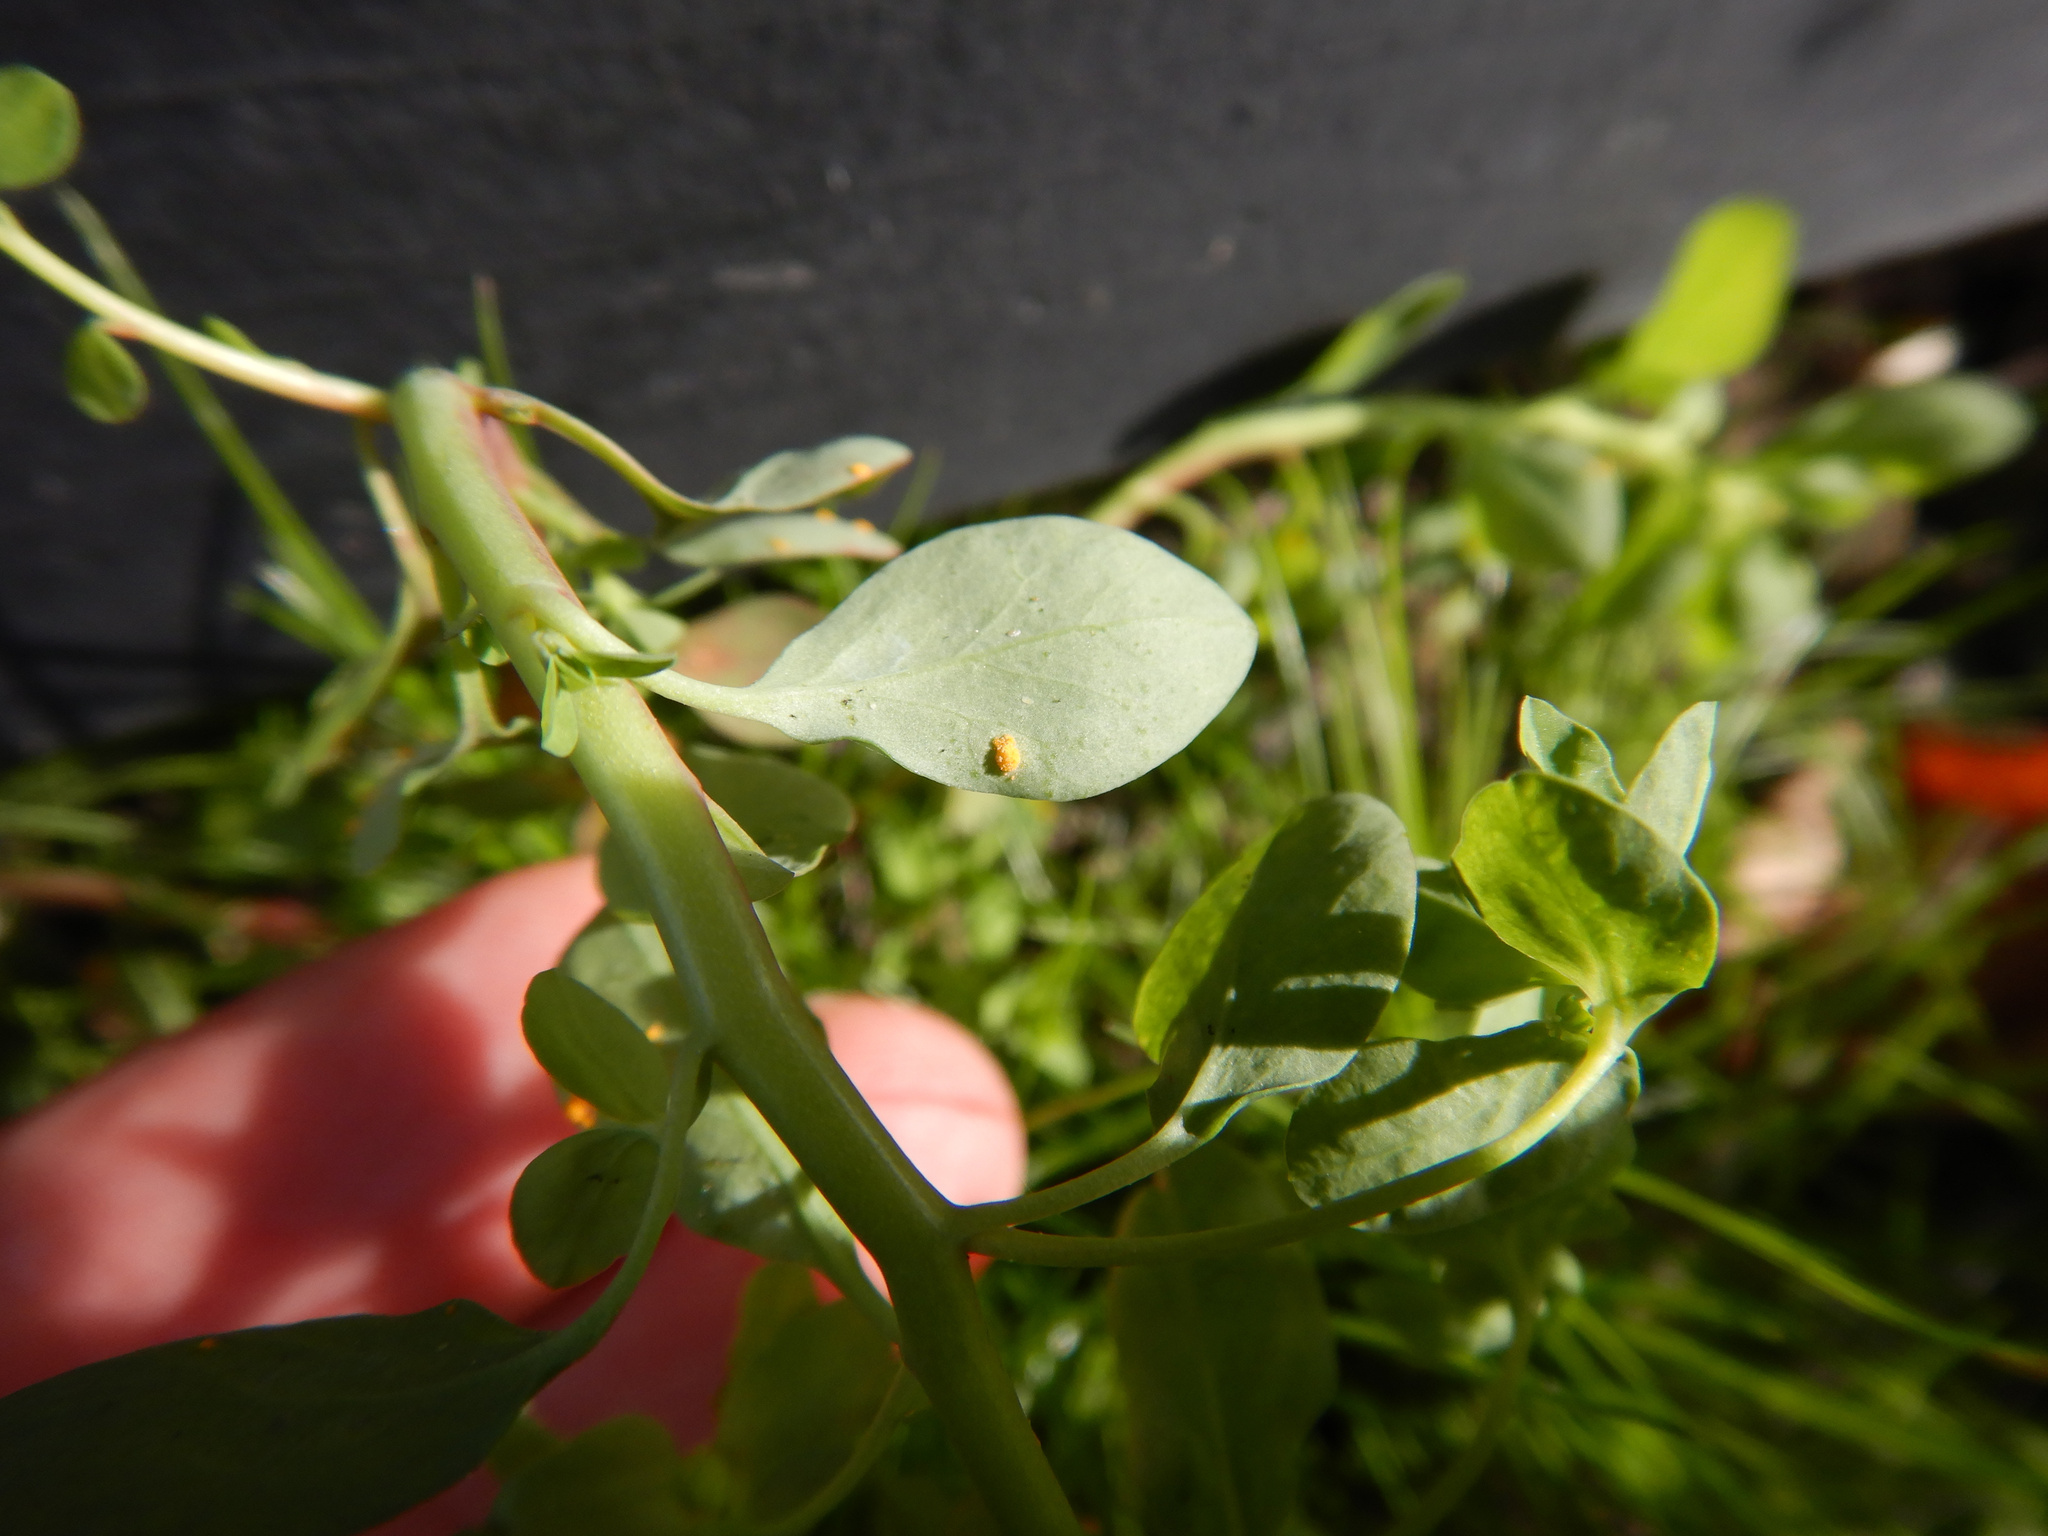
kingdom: Fungi
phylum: Basidiomycota
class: Pucciniomycetes
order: Pucciniales
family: Melampsoraceae
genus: Melampsora
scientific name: Melampsora euphorbiae
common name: Spurge rust
